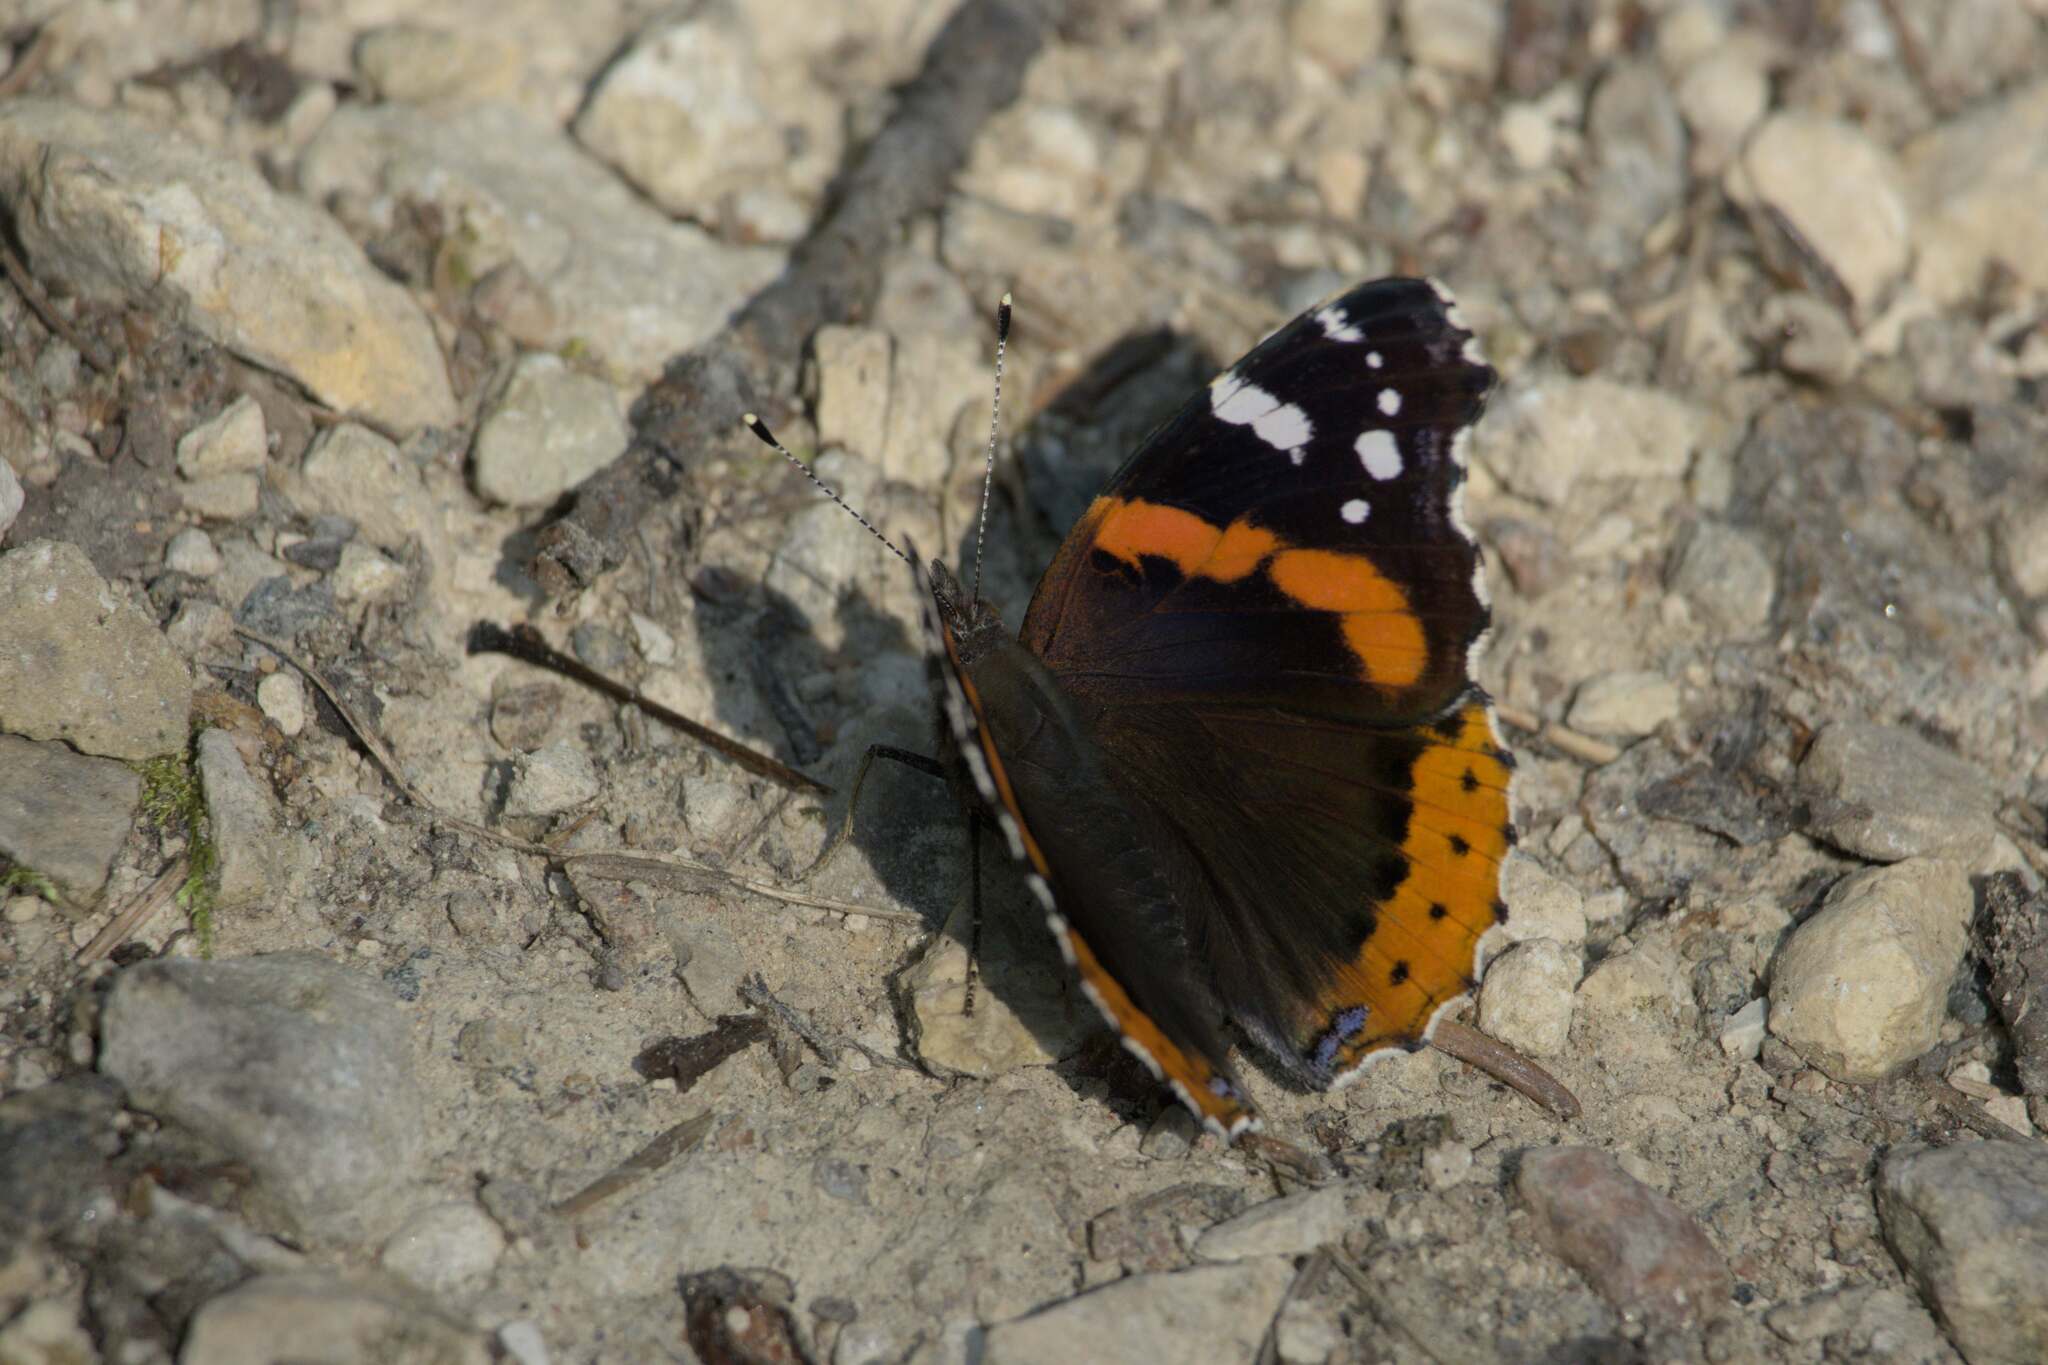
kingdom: Animalia
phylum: Arthropoda
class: Insecta
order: Lepidoptera
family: Nymphalidae
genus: Vanessa
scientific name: Vanessa atalanta
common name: Red admiral
